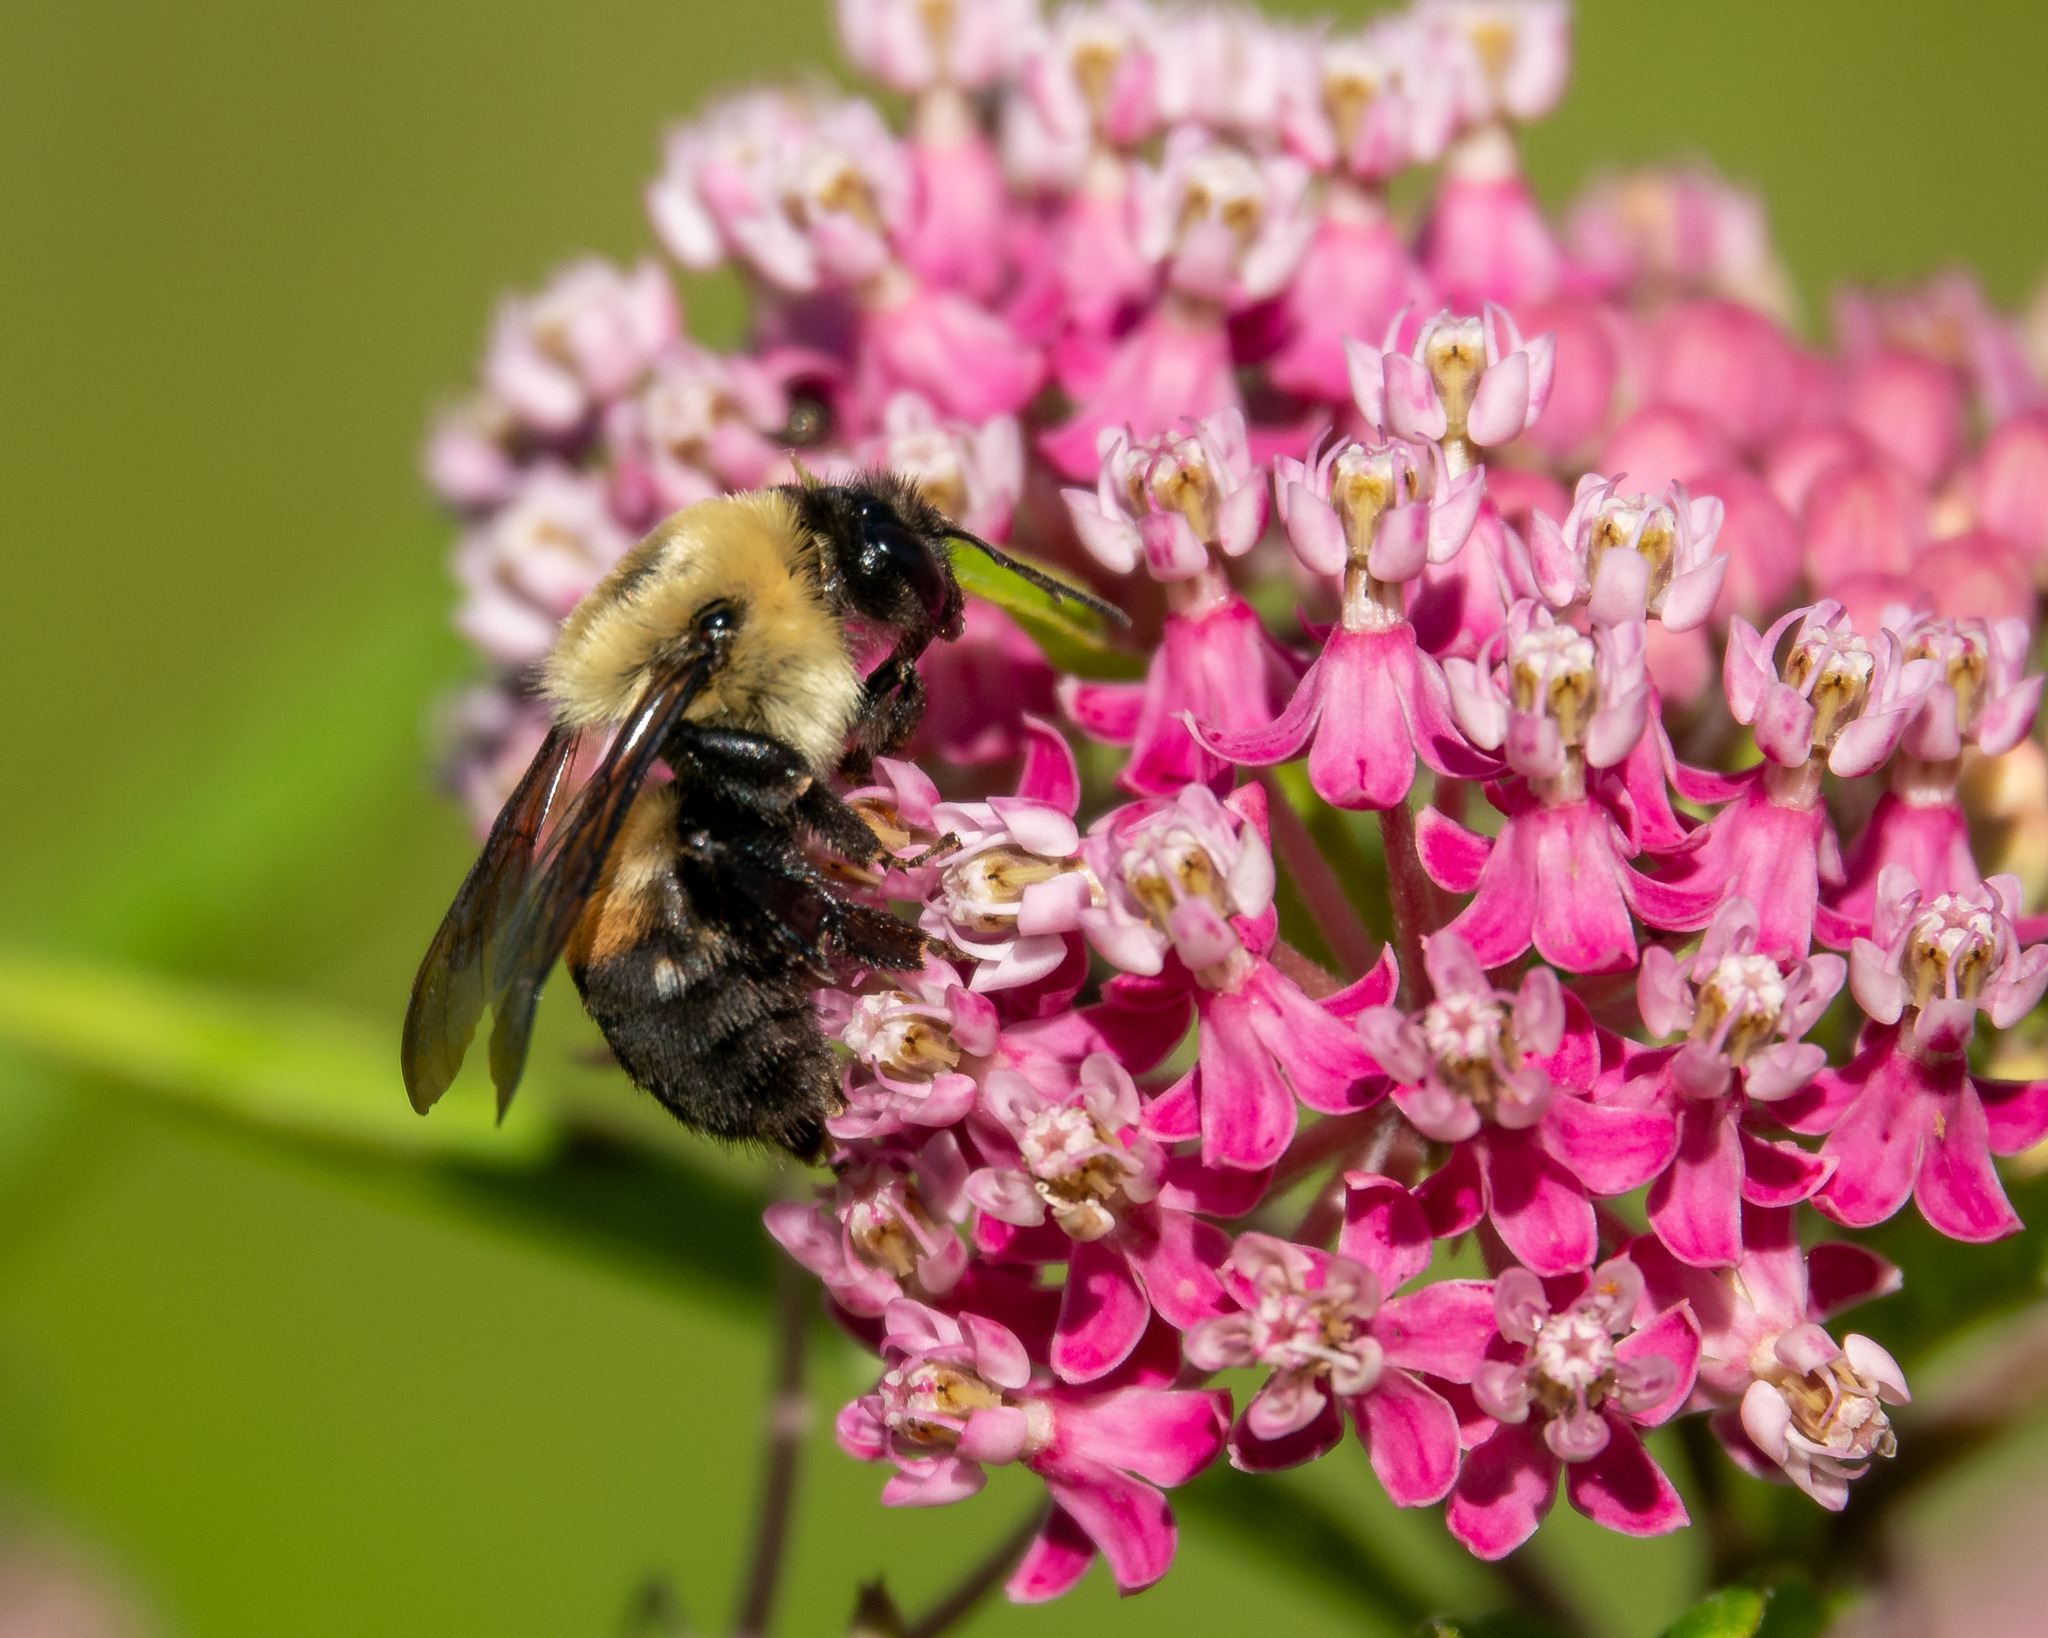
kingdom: Animalia
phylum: Arthropoda
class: Insecta
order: Hymenoptera
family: Apidae
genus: Bombus
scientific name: Bombus griseocollis
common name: Brown-belted bumble bee
